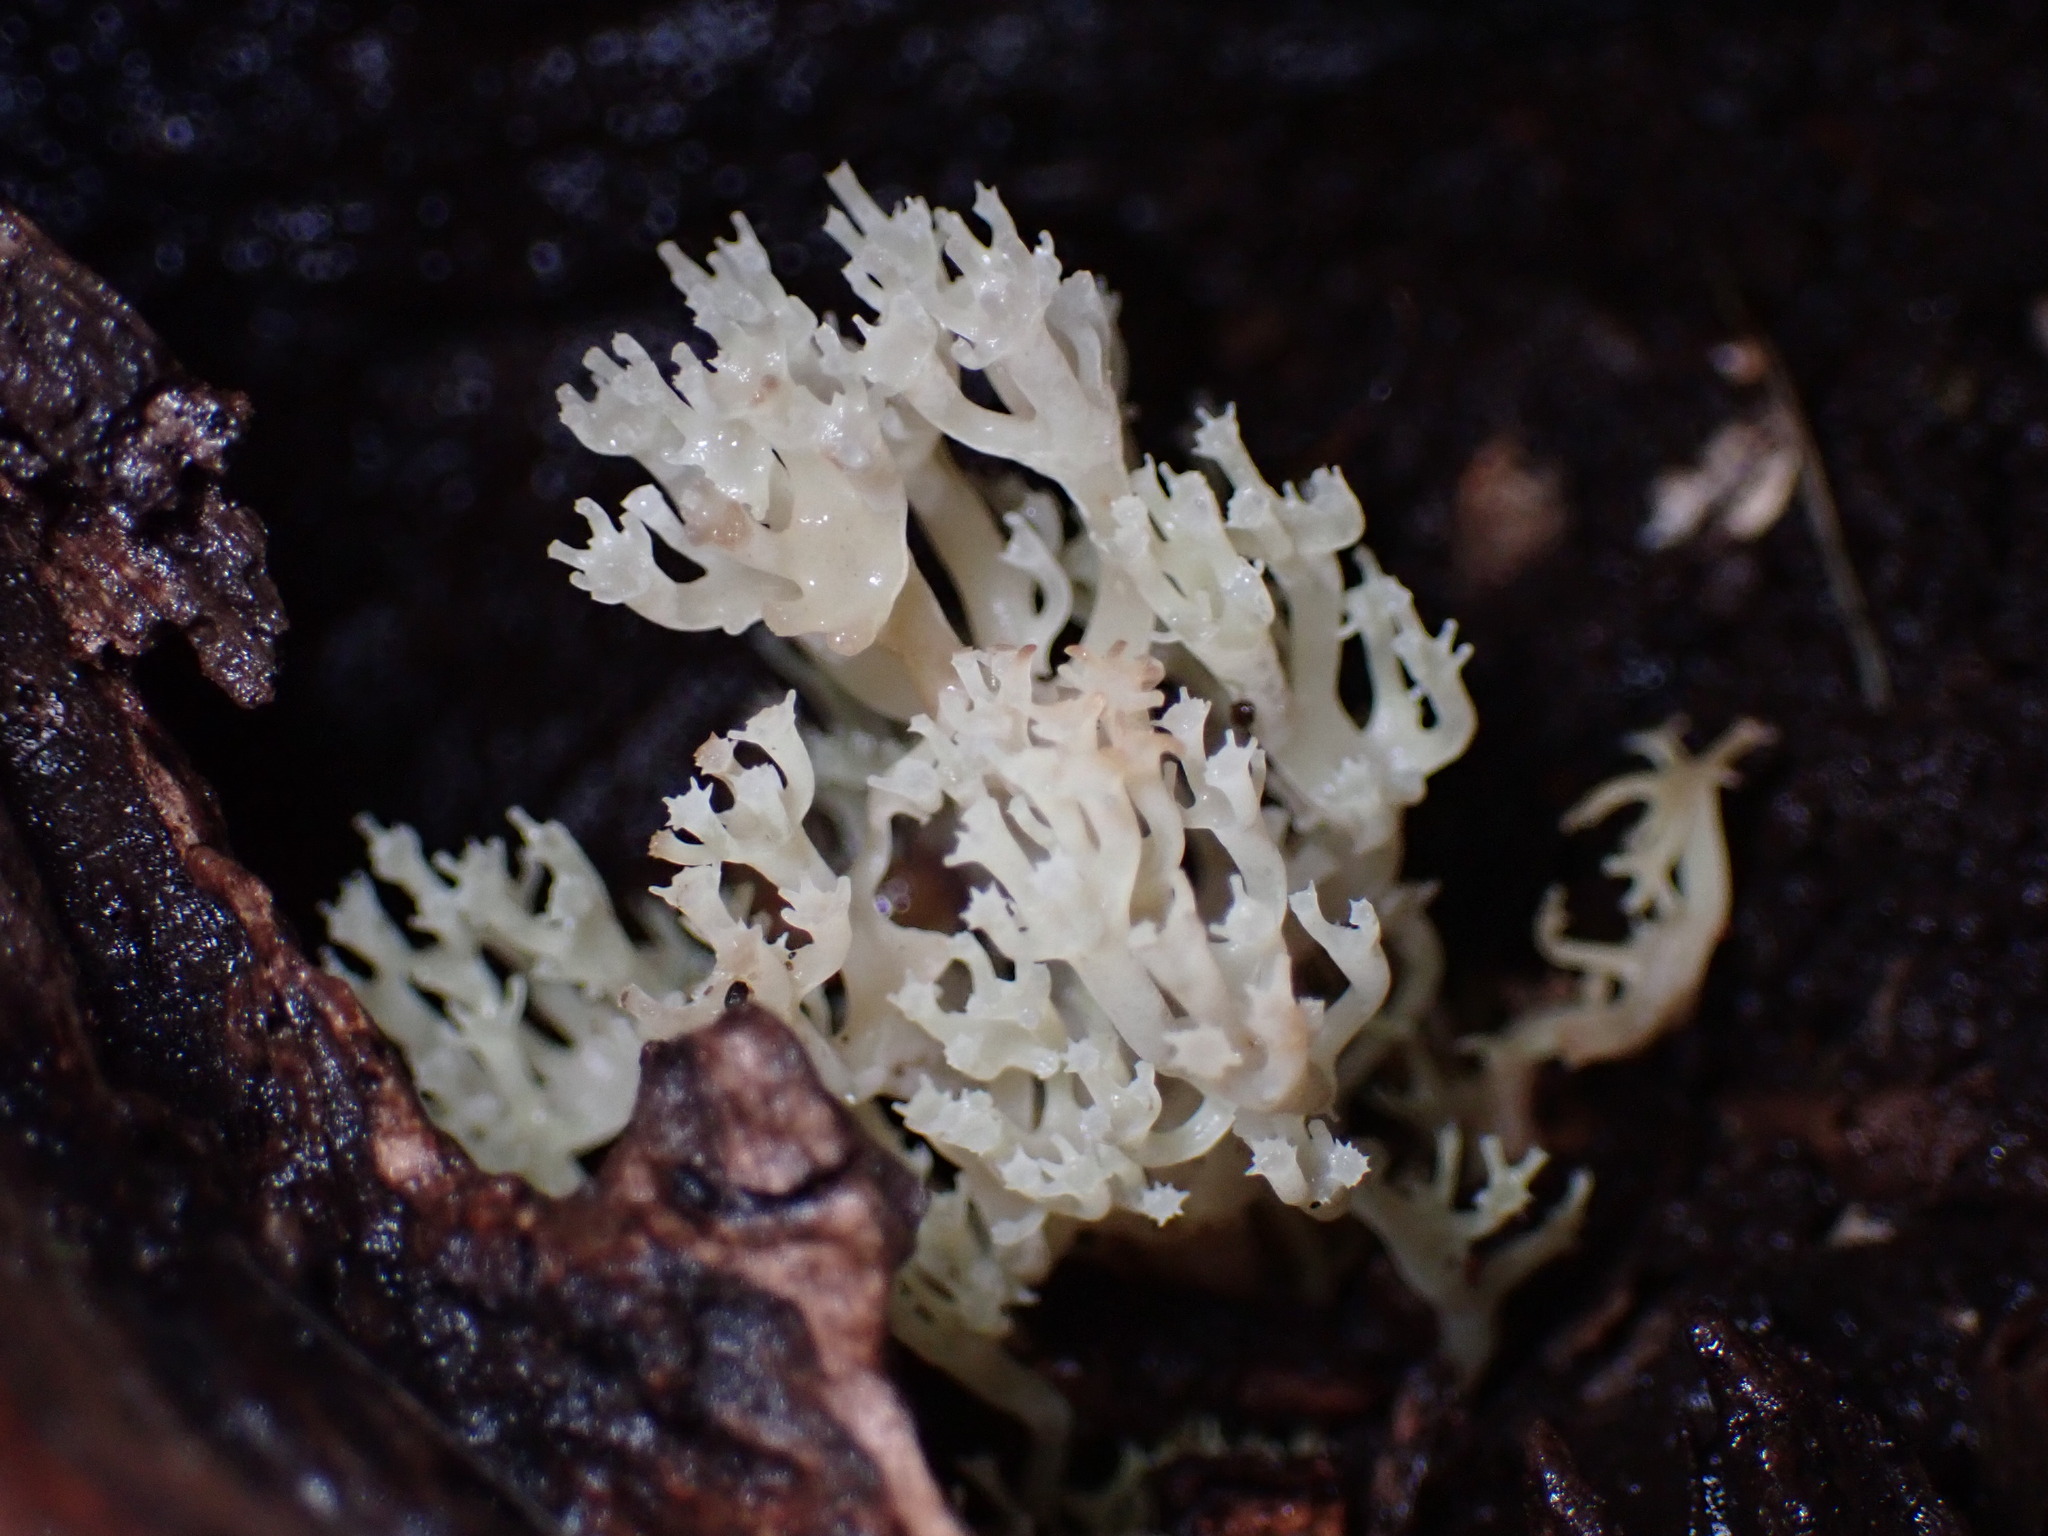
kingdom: Fungi
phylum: Basidiomycota
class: Agaricomycetes
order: Russulales
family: Auriscalpiaceae
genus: Artomyces
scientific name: Artomyces pyxidatus
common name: Crown-tipped coral fungus
